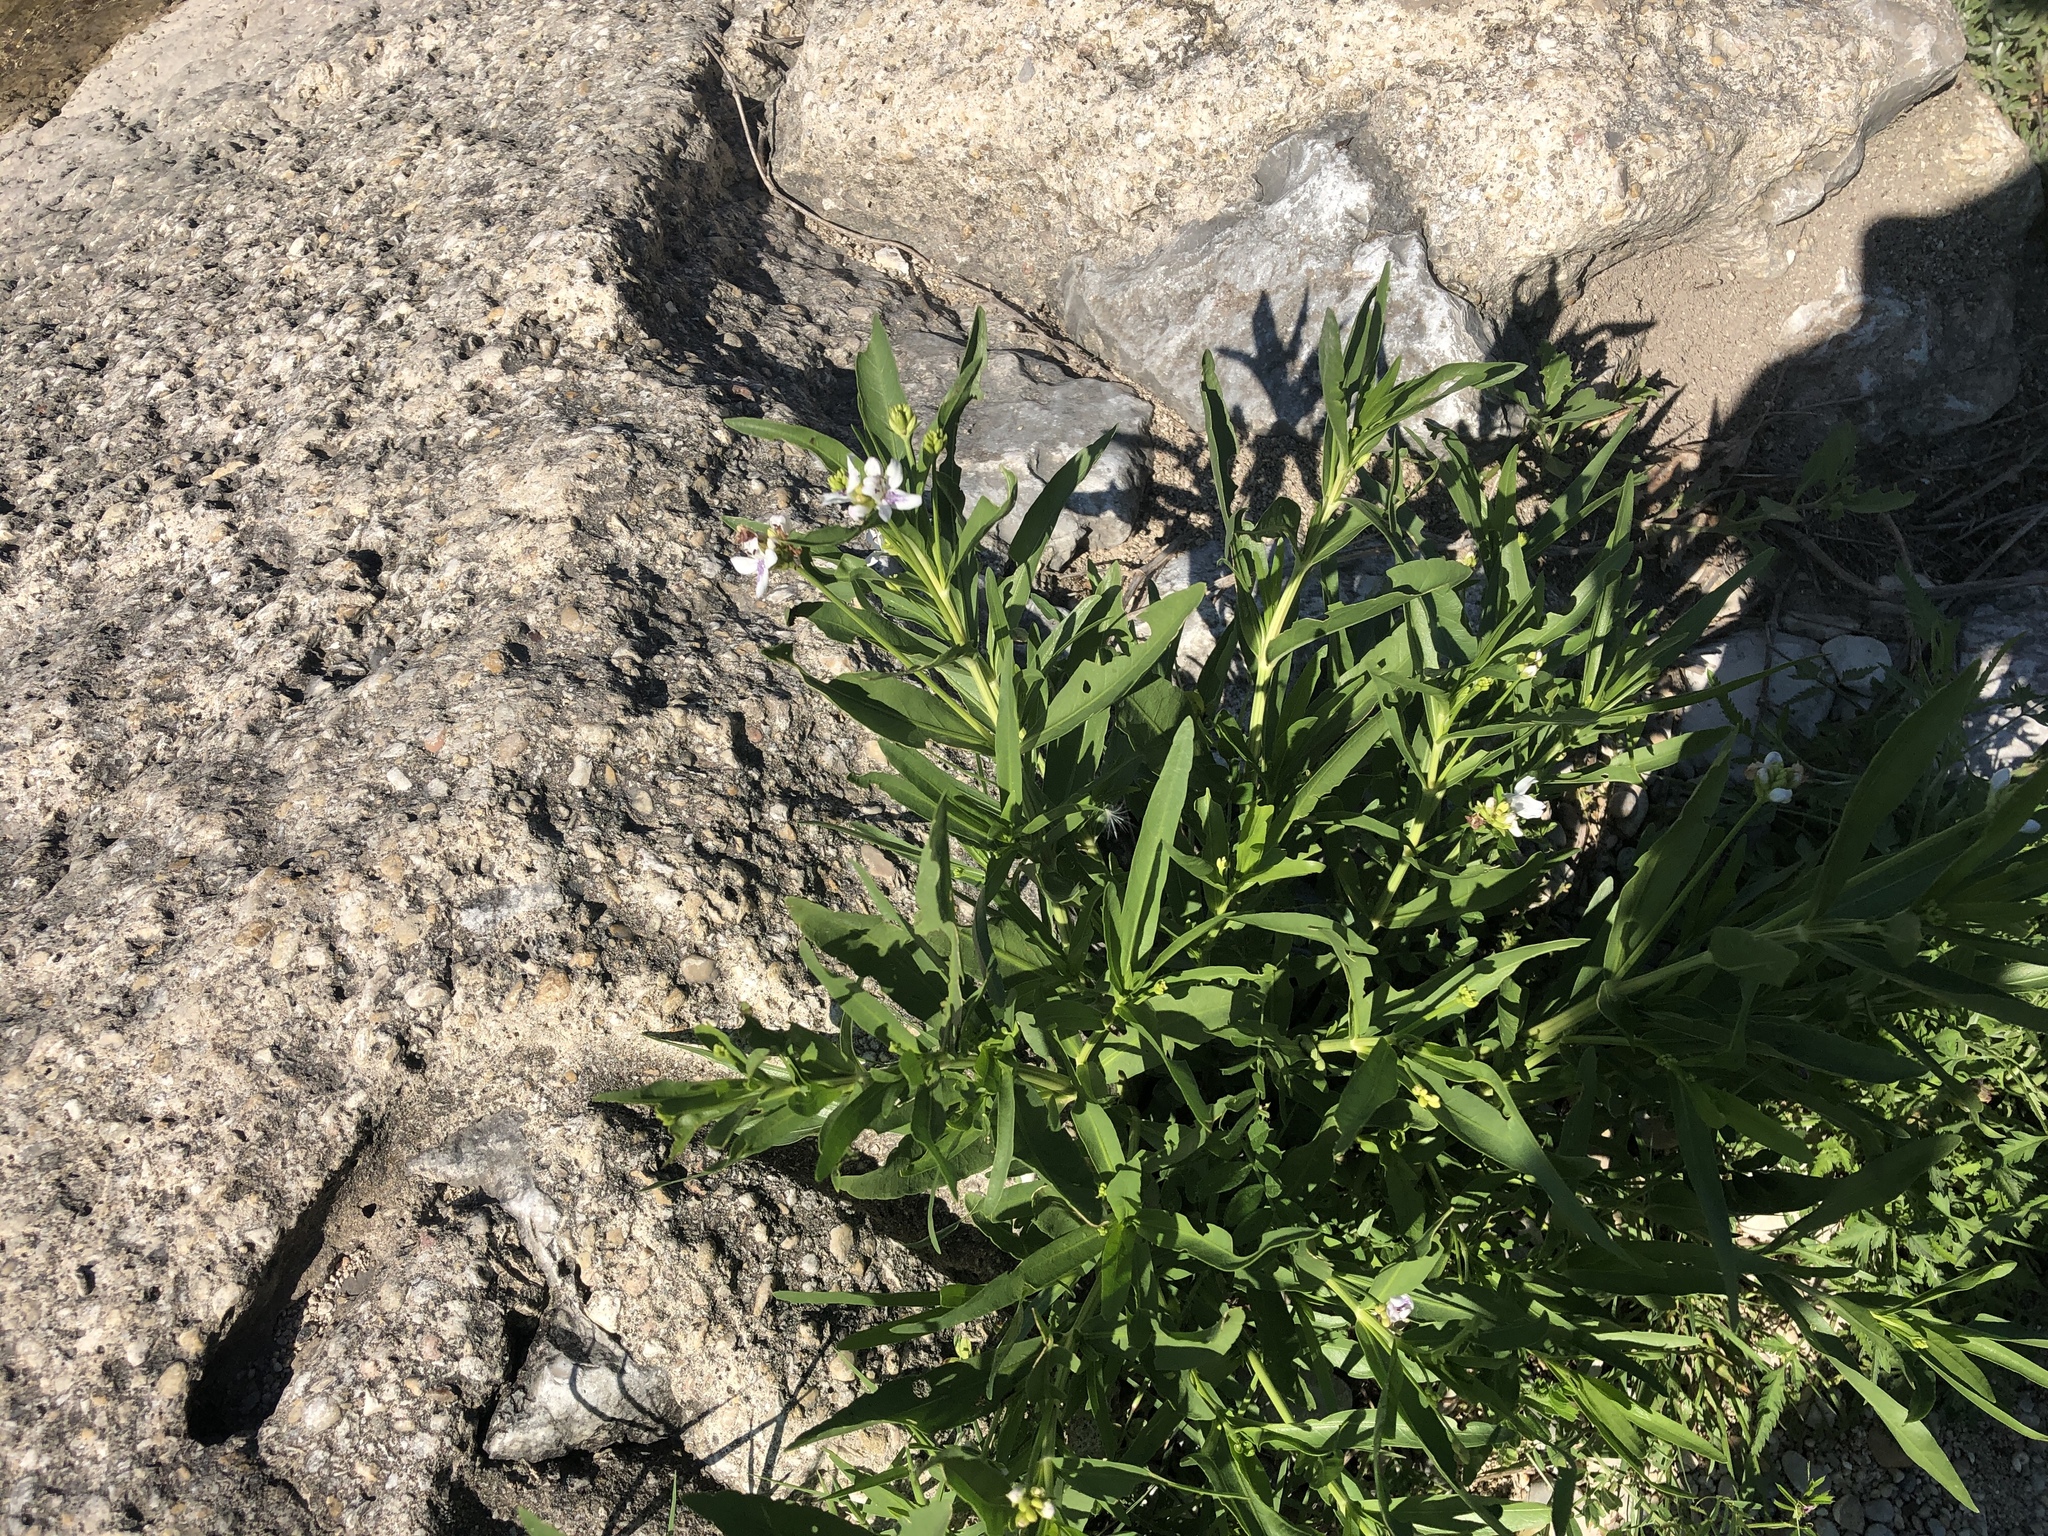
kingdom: Plantae
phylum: Tracheophyta
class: Magnoliopsida
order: Lamiales
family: Acanthaceae
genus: Dianthera
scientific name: Dianthera americana
